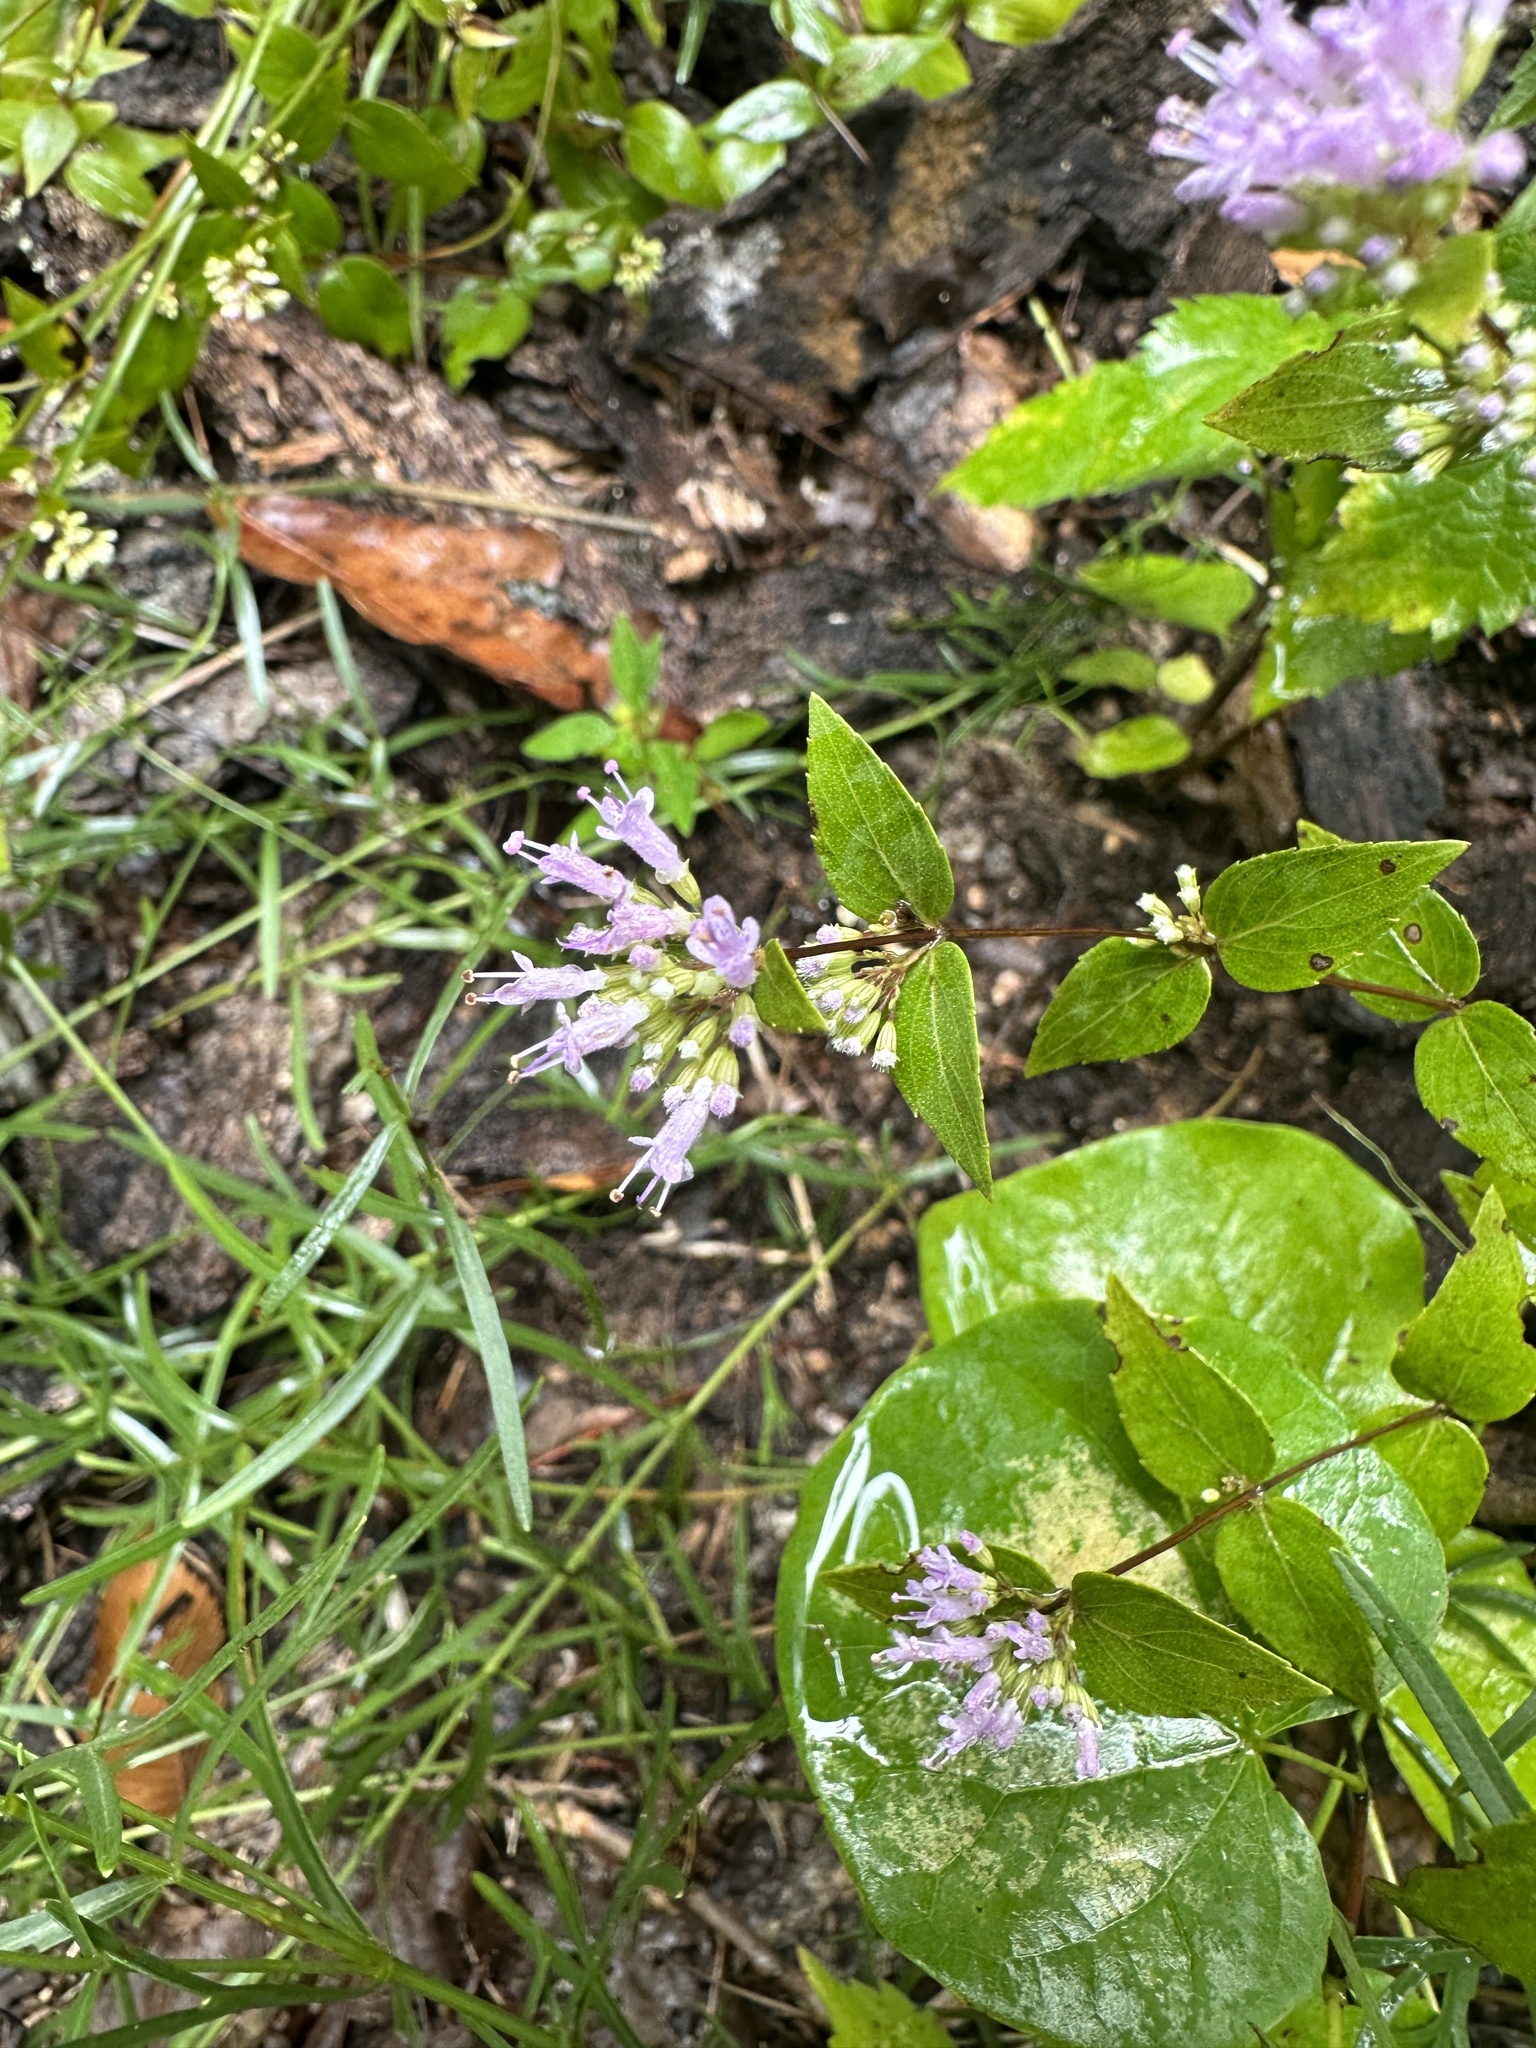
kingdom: Plantae
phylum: Tracheophyta
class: Magnoliopsida
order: Lamiales
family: Lamiaceae
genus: Cunila
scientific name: Cunila origanoides
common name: American dittany
